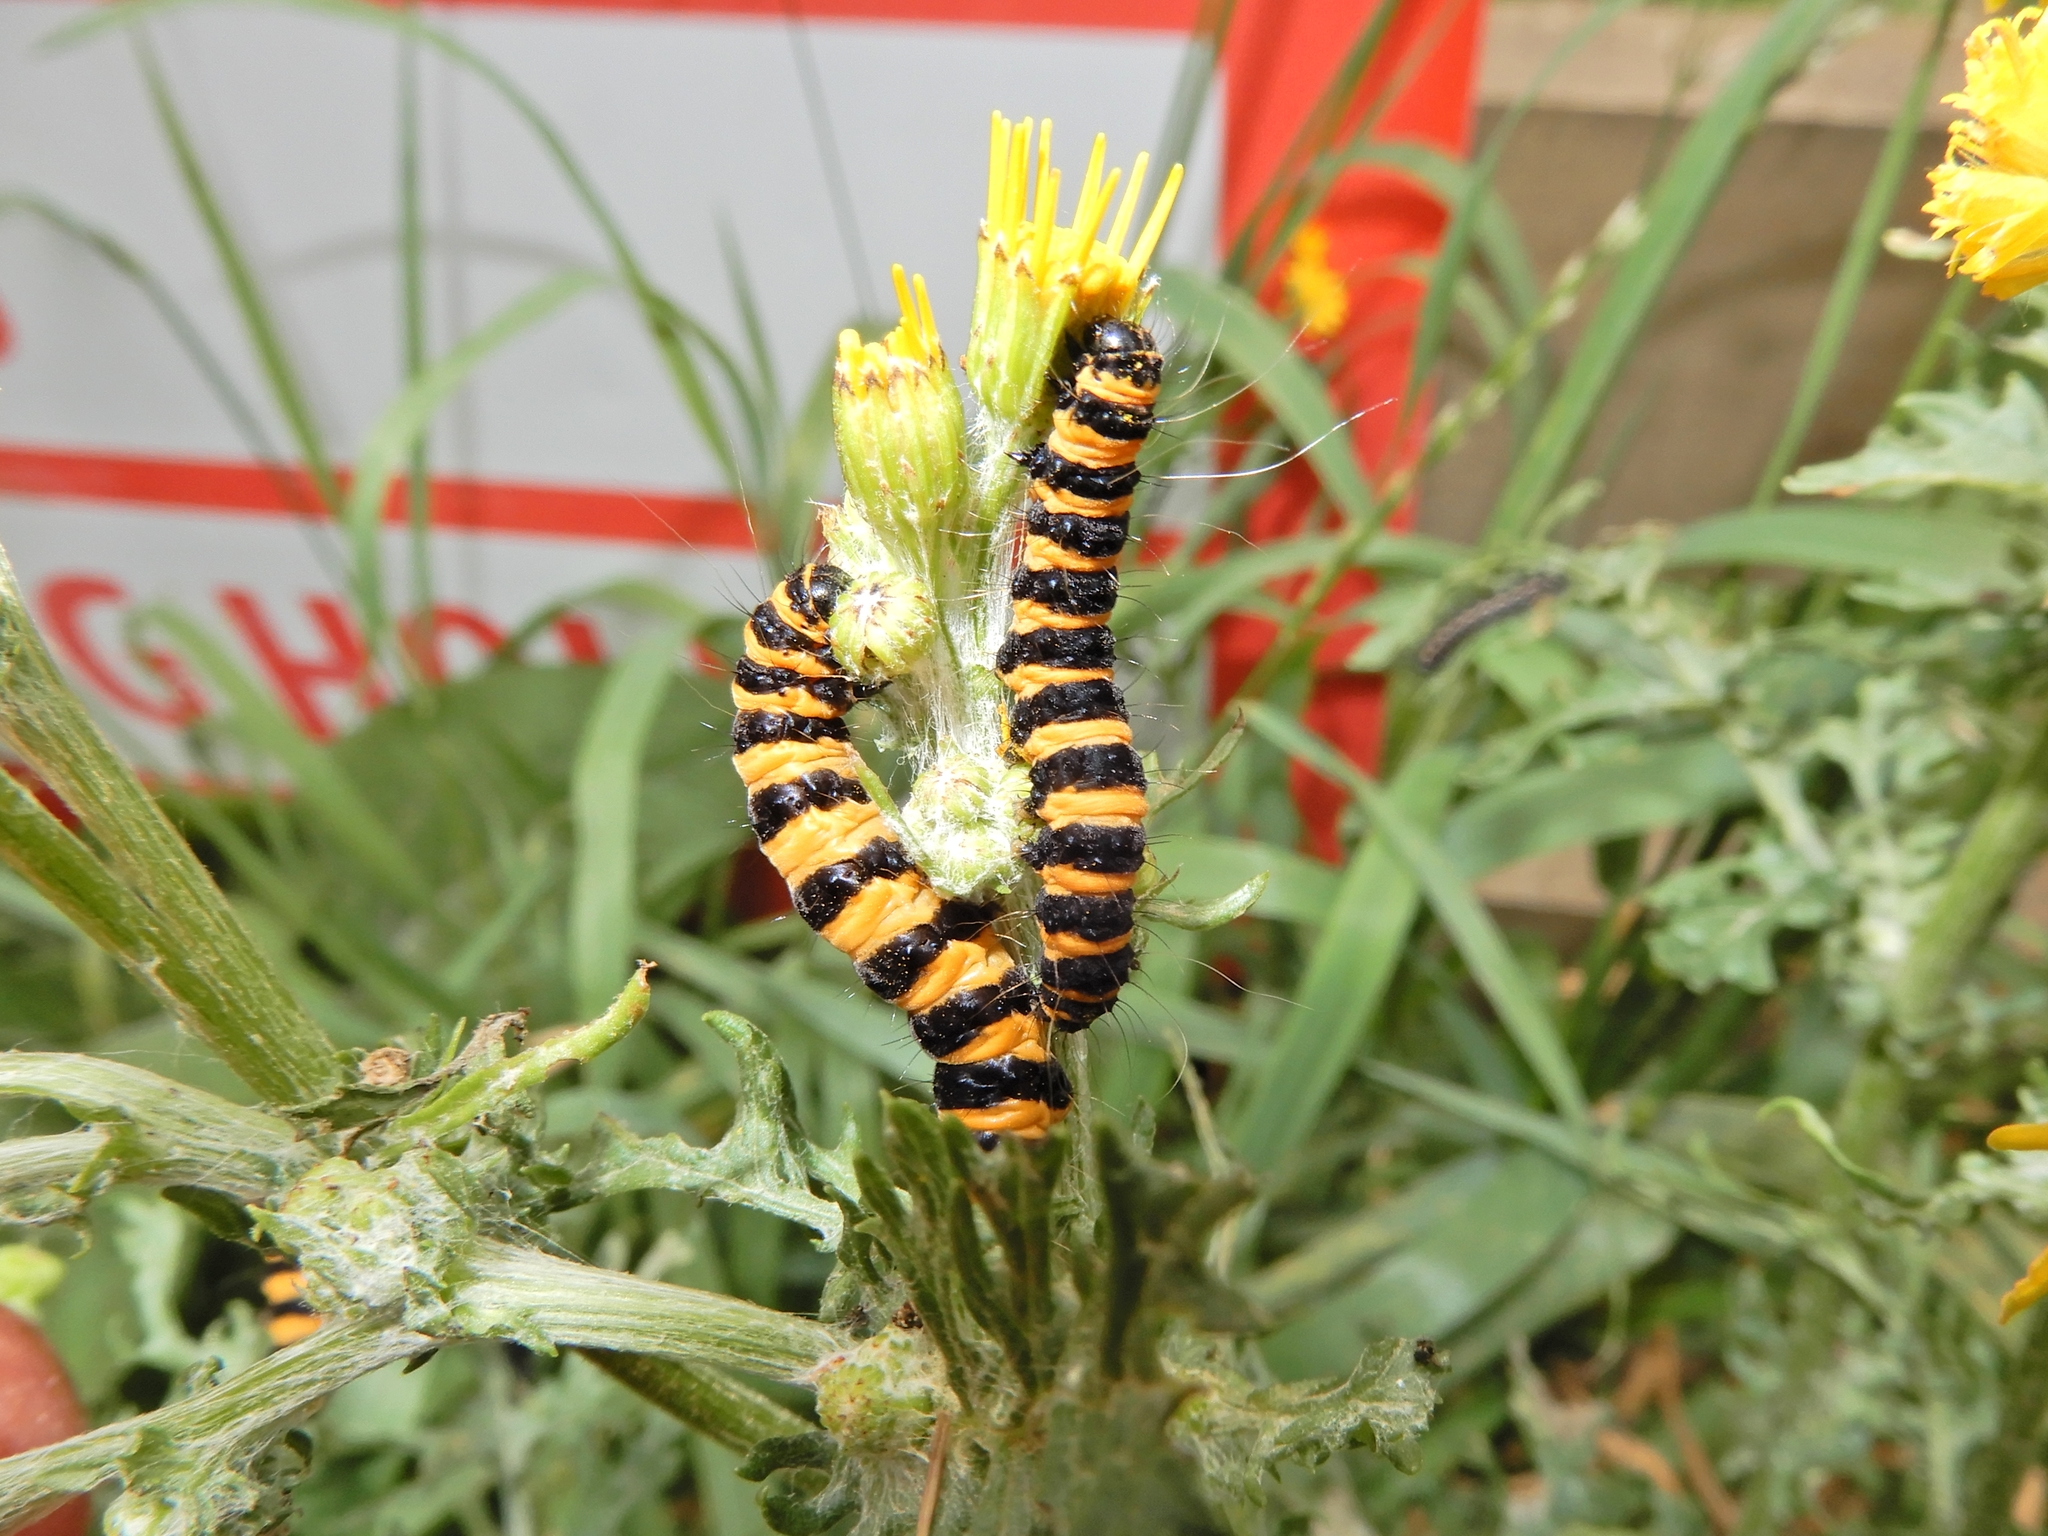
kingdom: Animalia
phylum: Arthropoda
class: Insecta
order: Lepidoptera
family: Erebidae
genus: Tyria
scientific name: Tyria jacobaeae
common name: Cinnabar
